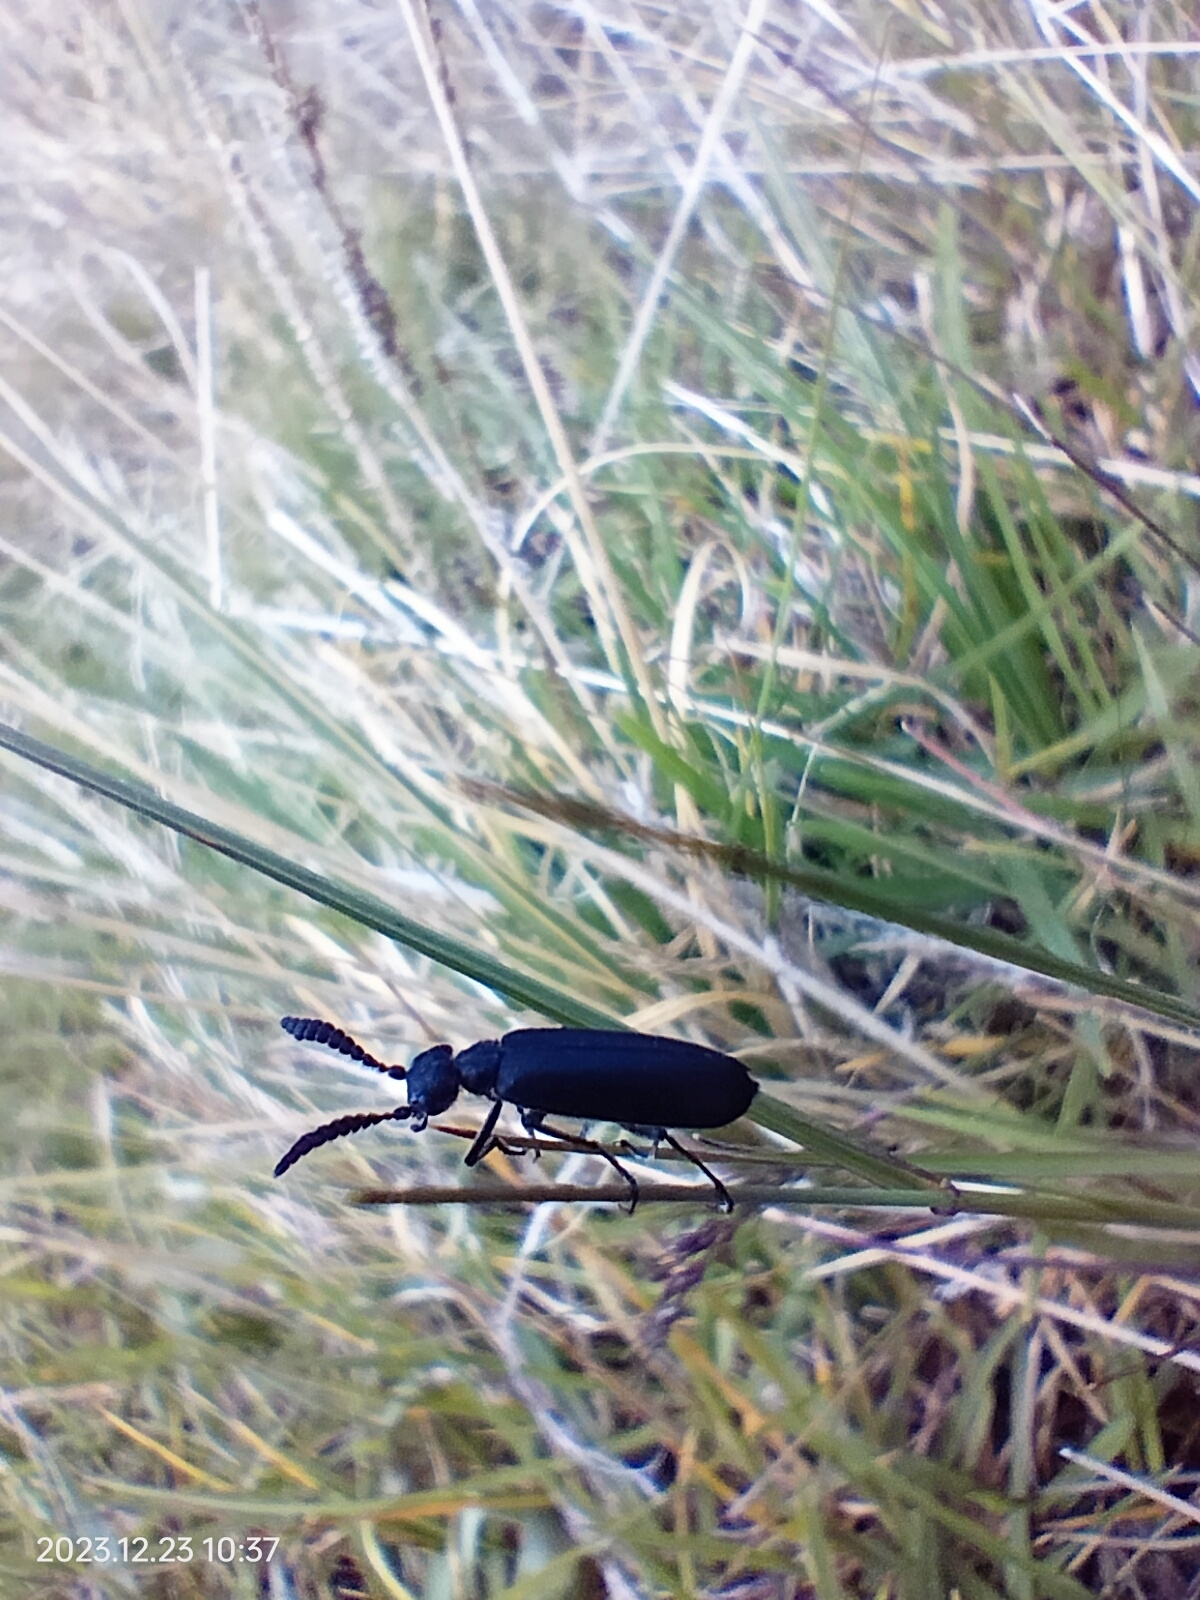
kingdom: Animalia
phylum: Arthropoda
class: Insecta
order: Coleoptera
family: Meloidae
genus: Epicauta
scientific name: Epicauta
